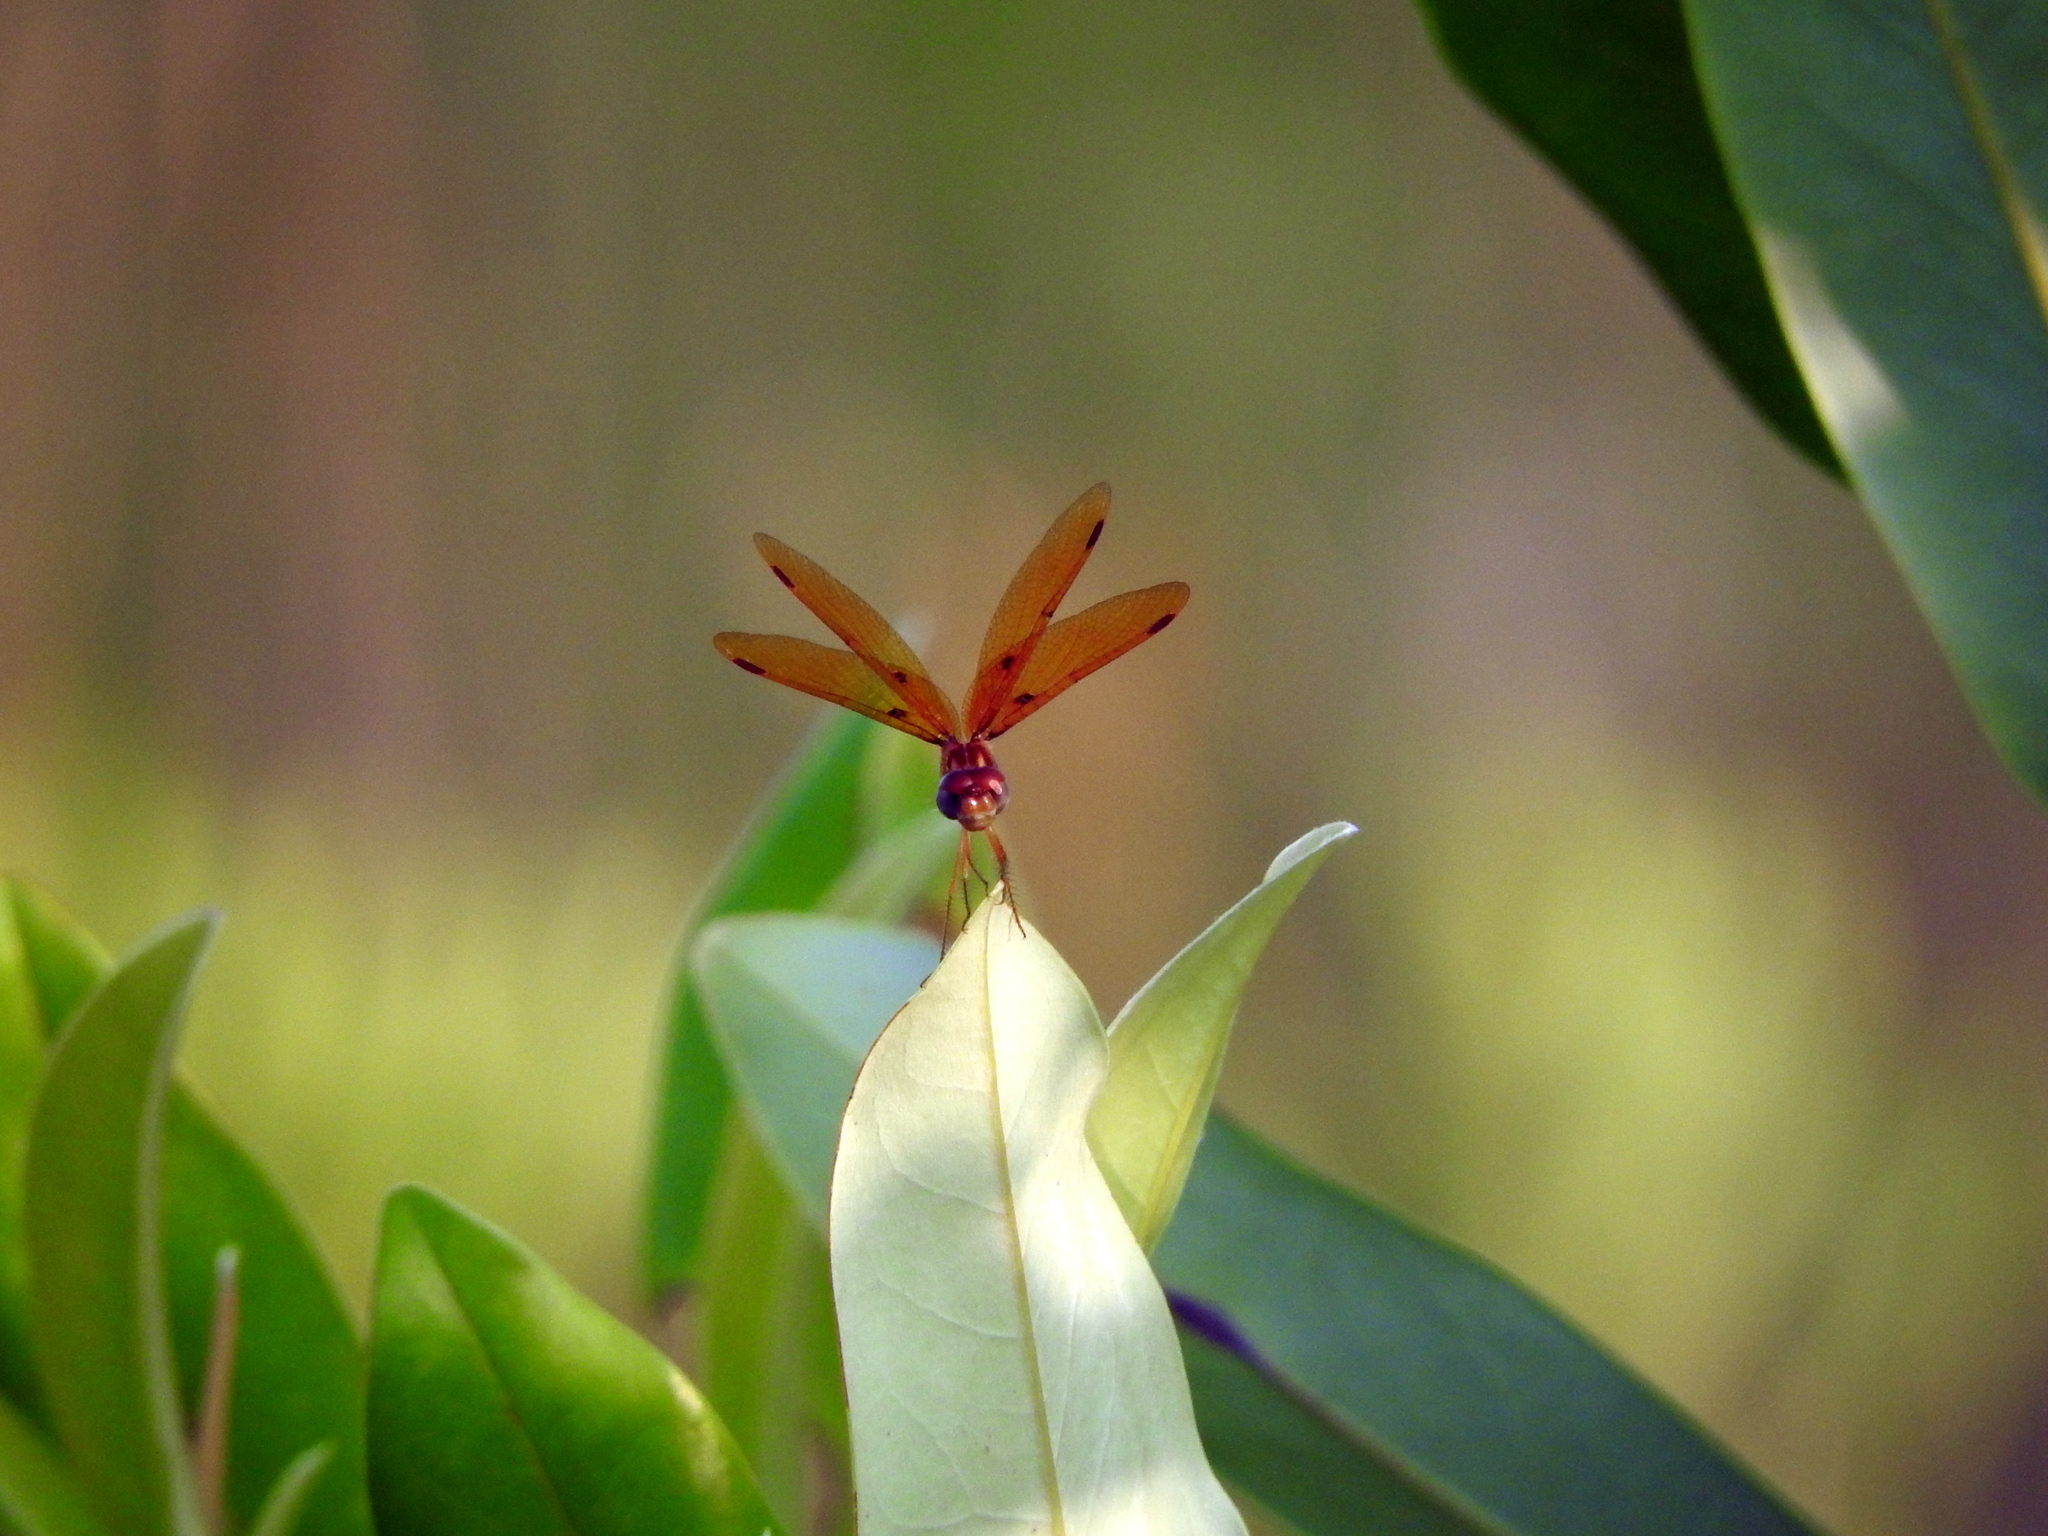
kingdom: Animalia
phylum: Arthropoda
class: Insecta
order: Odonata
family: Libellulidae
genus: Perithemis
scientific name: Perithemis tenera
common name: Eastern amberwing
